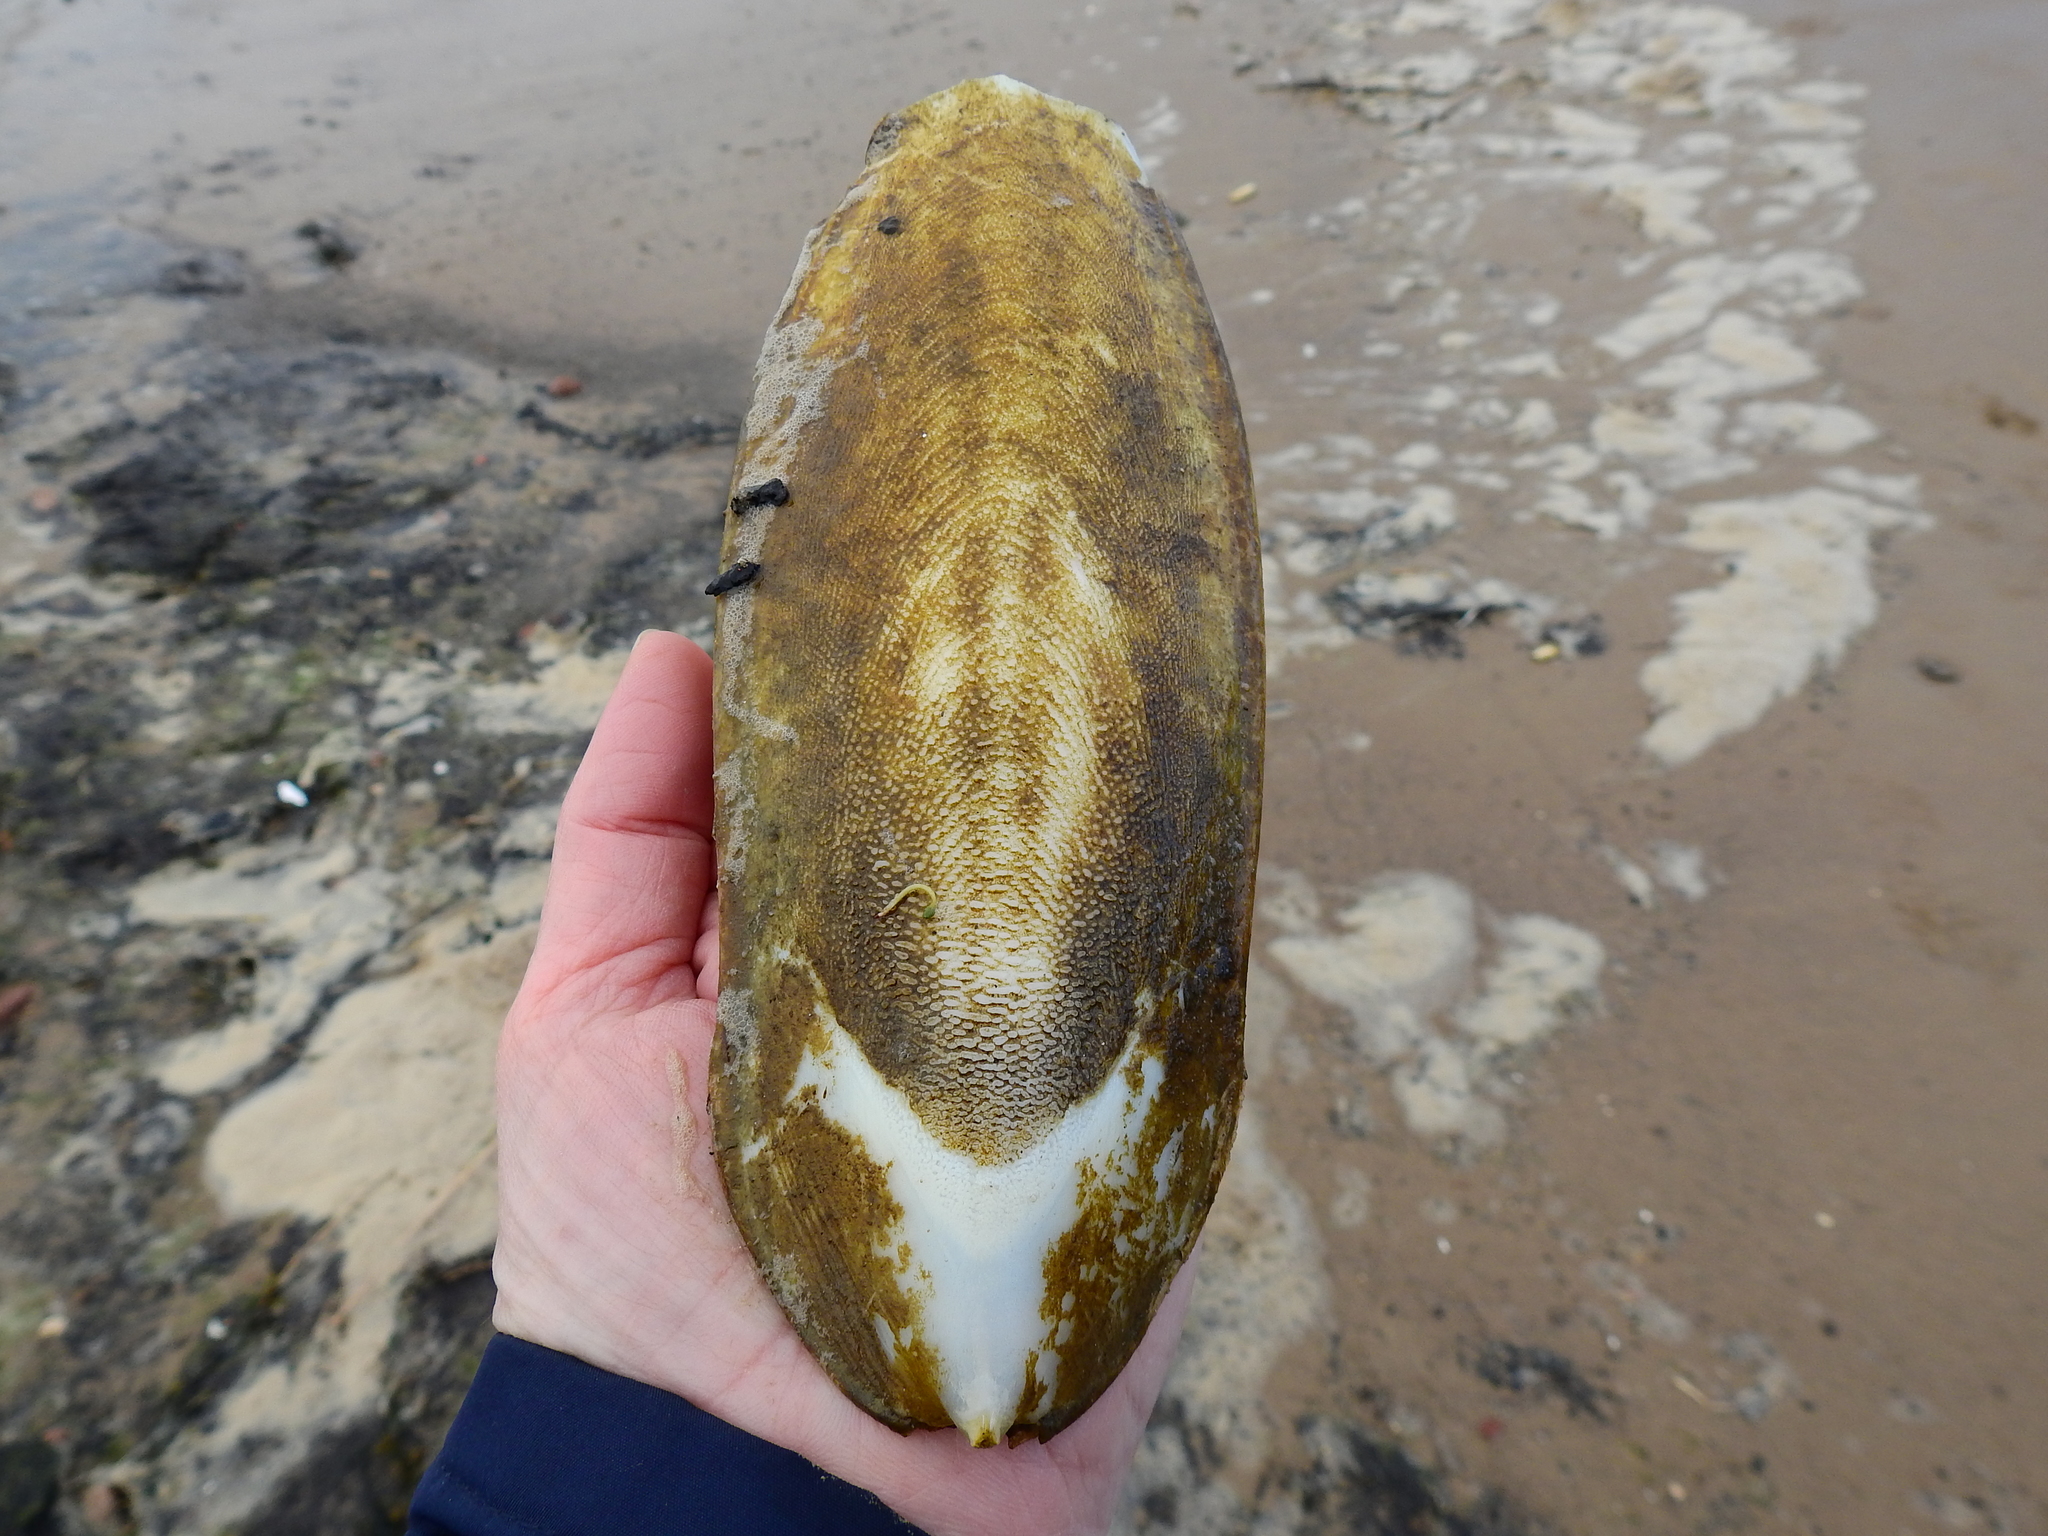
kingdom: Animalia
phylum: Mollusca
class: Cephalopoda
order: Sepiida
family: Sepiidae
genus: Sepia
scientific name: Sepia officinalis
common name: Common cuttlefish
